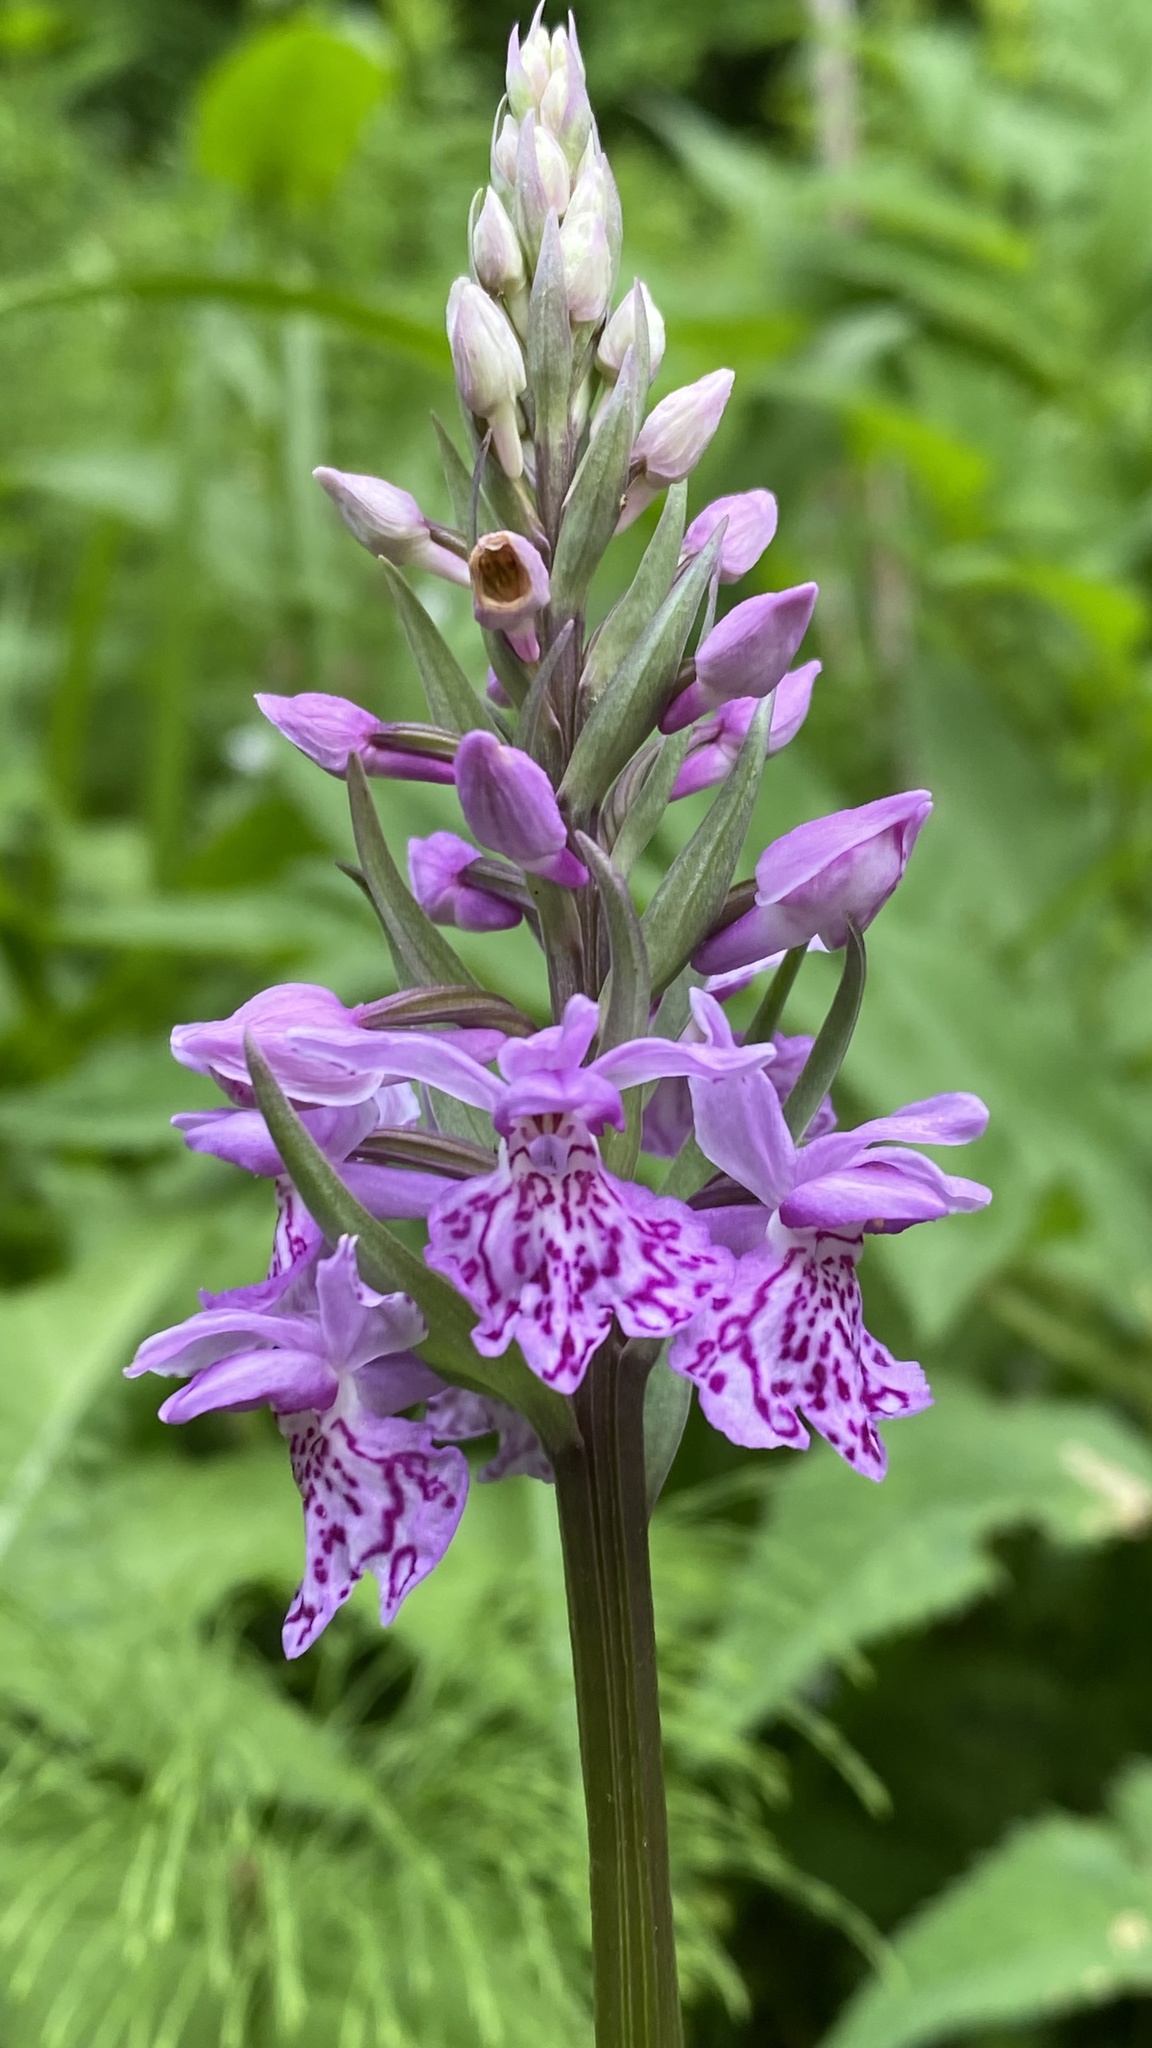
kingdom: Plantae
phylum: Tracheophyta
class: Liliopsida
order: Asparagales
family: Orchidaceae
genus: Dactylorhiza
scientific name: Dactylorhiza maculata
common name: Heath spotted-orchid
